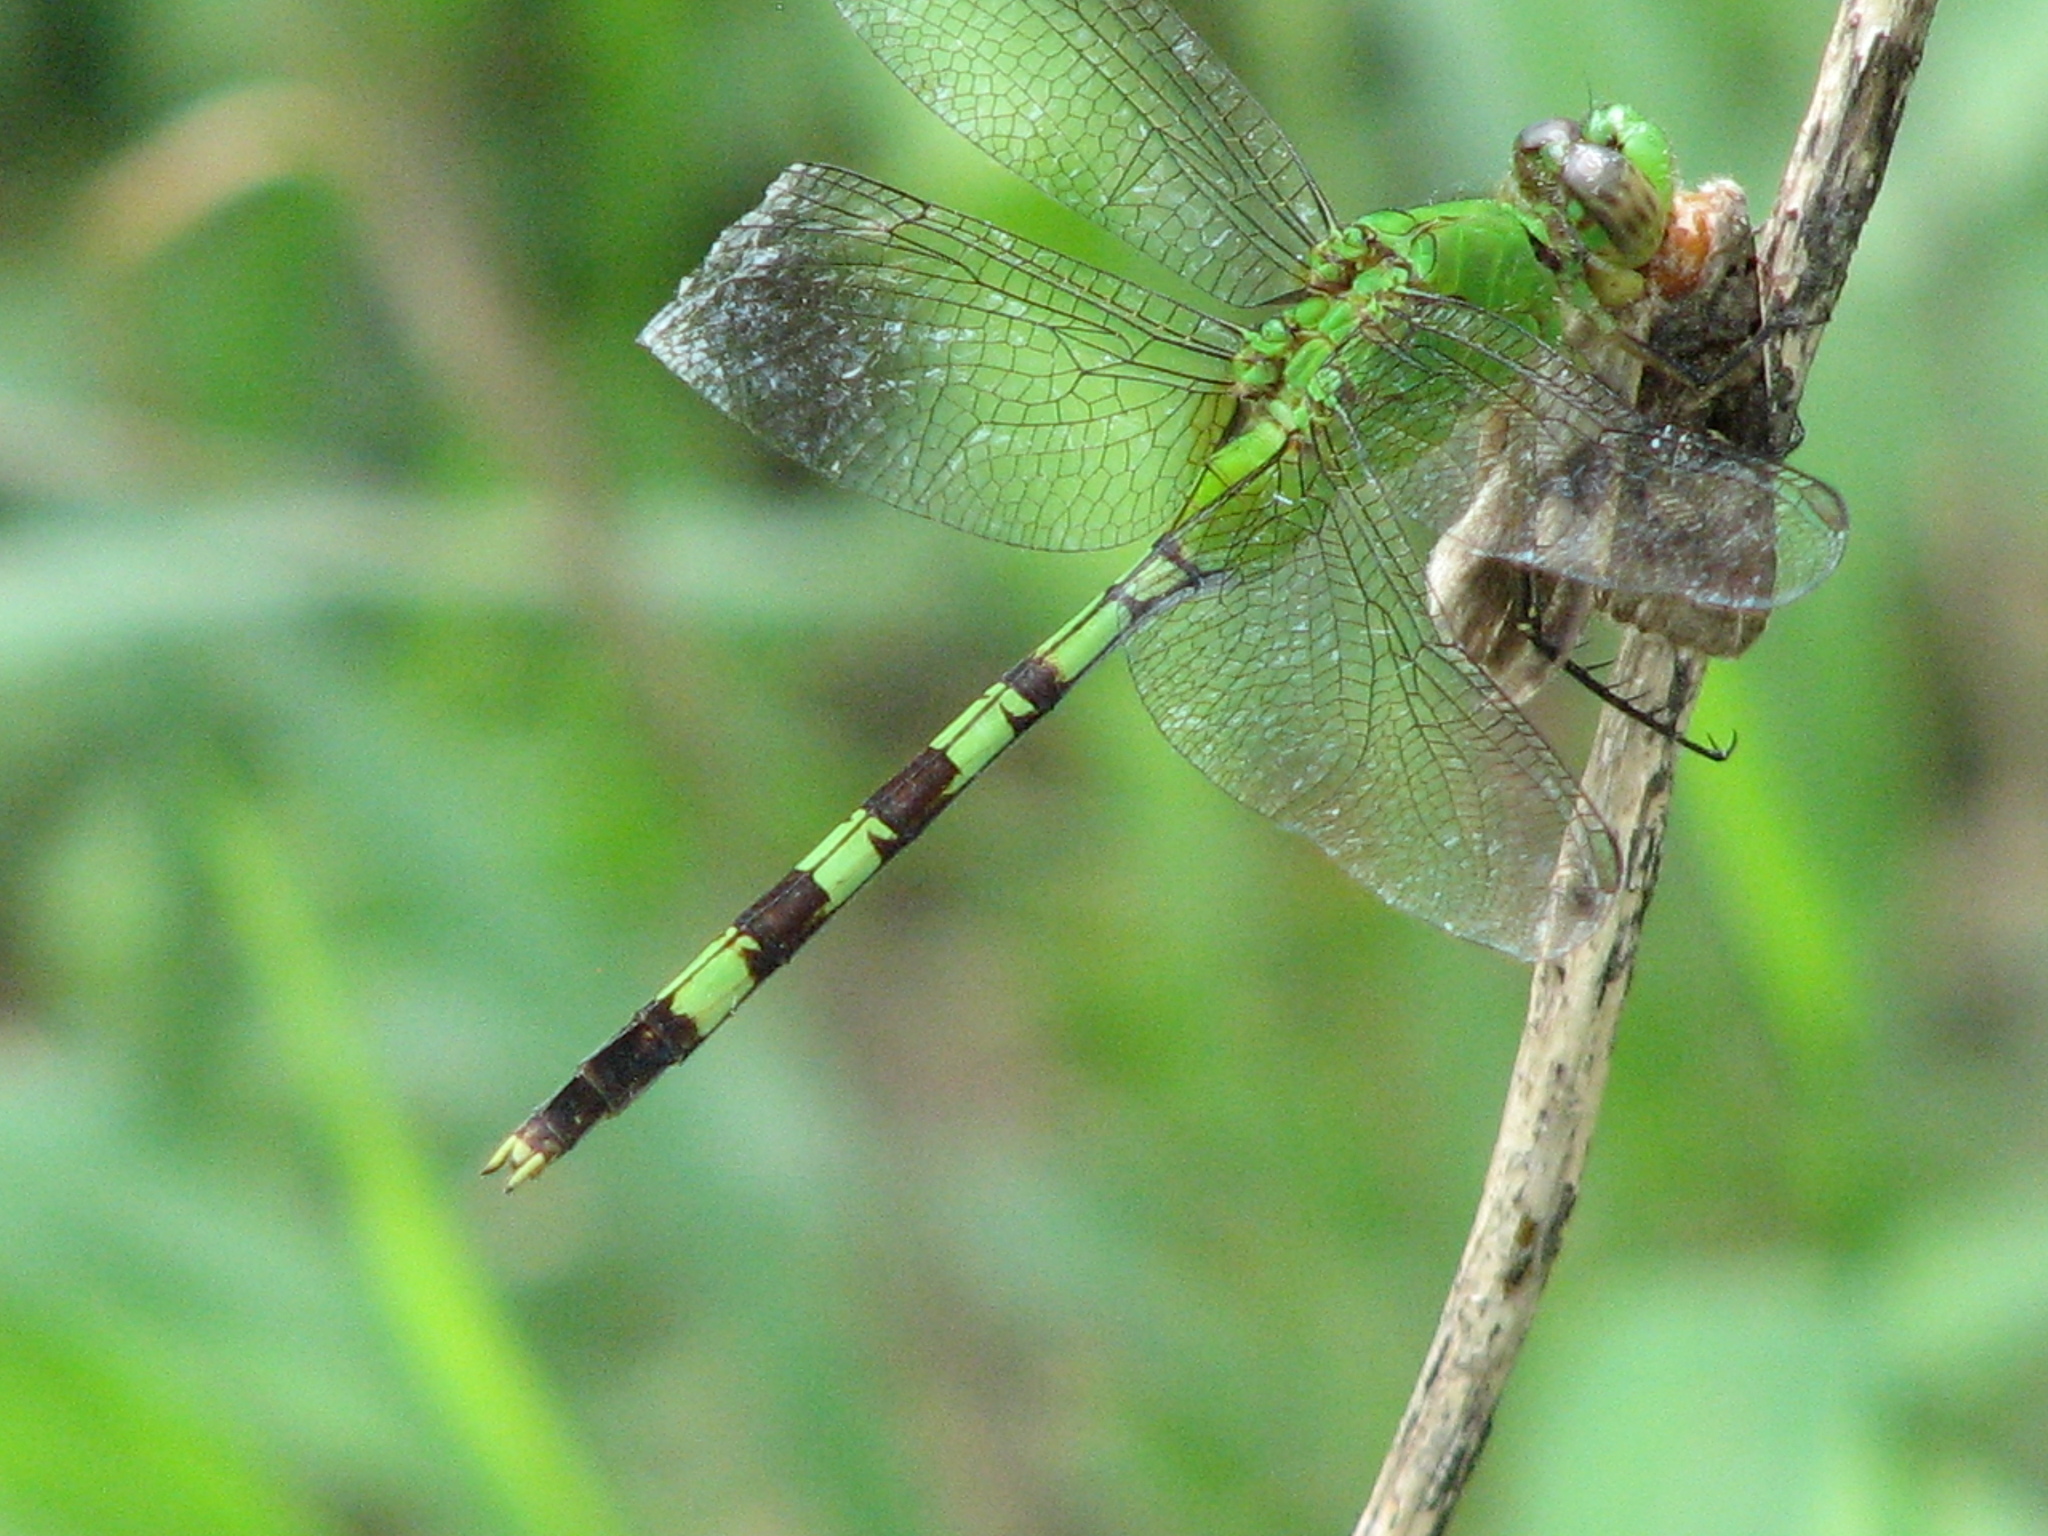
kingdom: Animalia
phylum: Arthropoda
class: Insecta
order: Odonata
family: Libellulidae
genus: Erythemis
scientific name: Erythemis vesiculosa
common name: Great pondhawk
